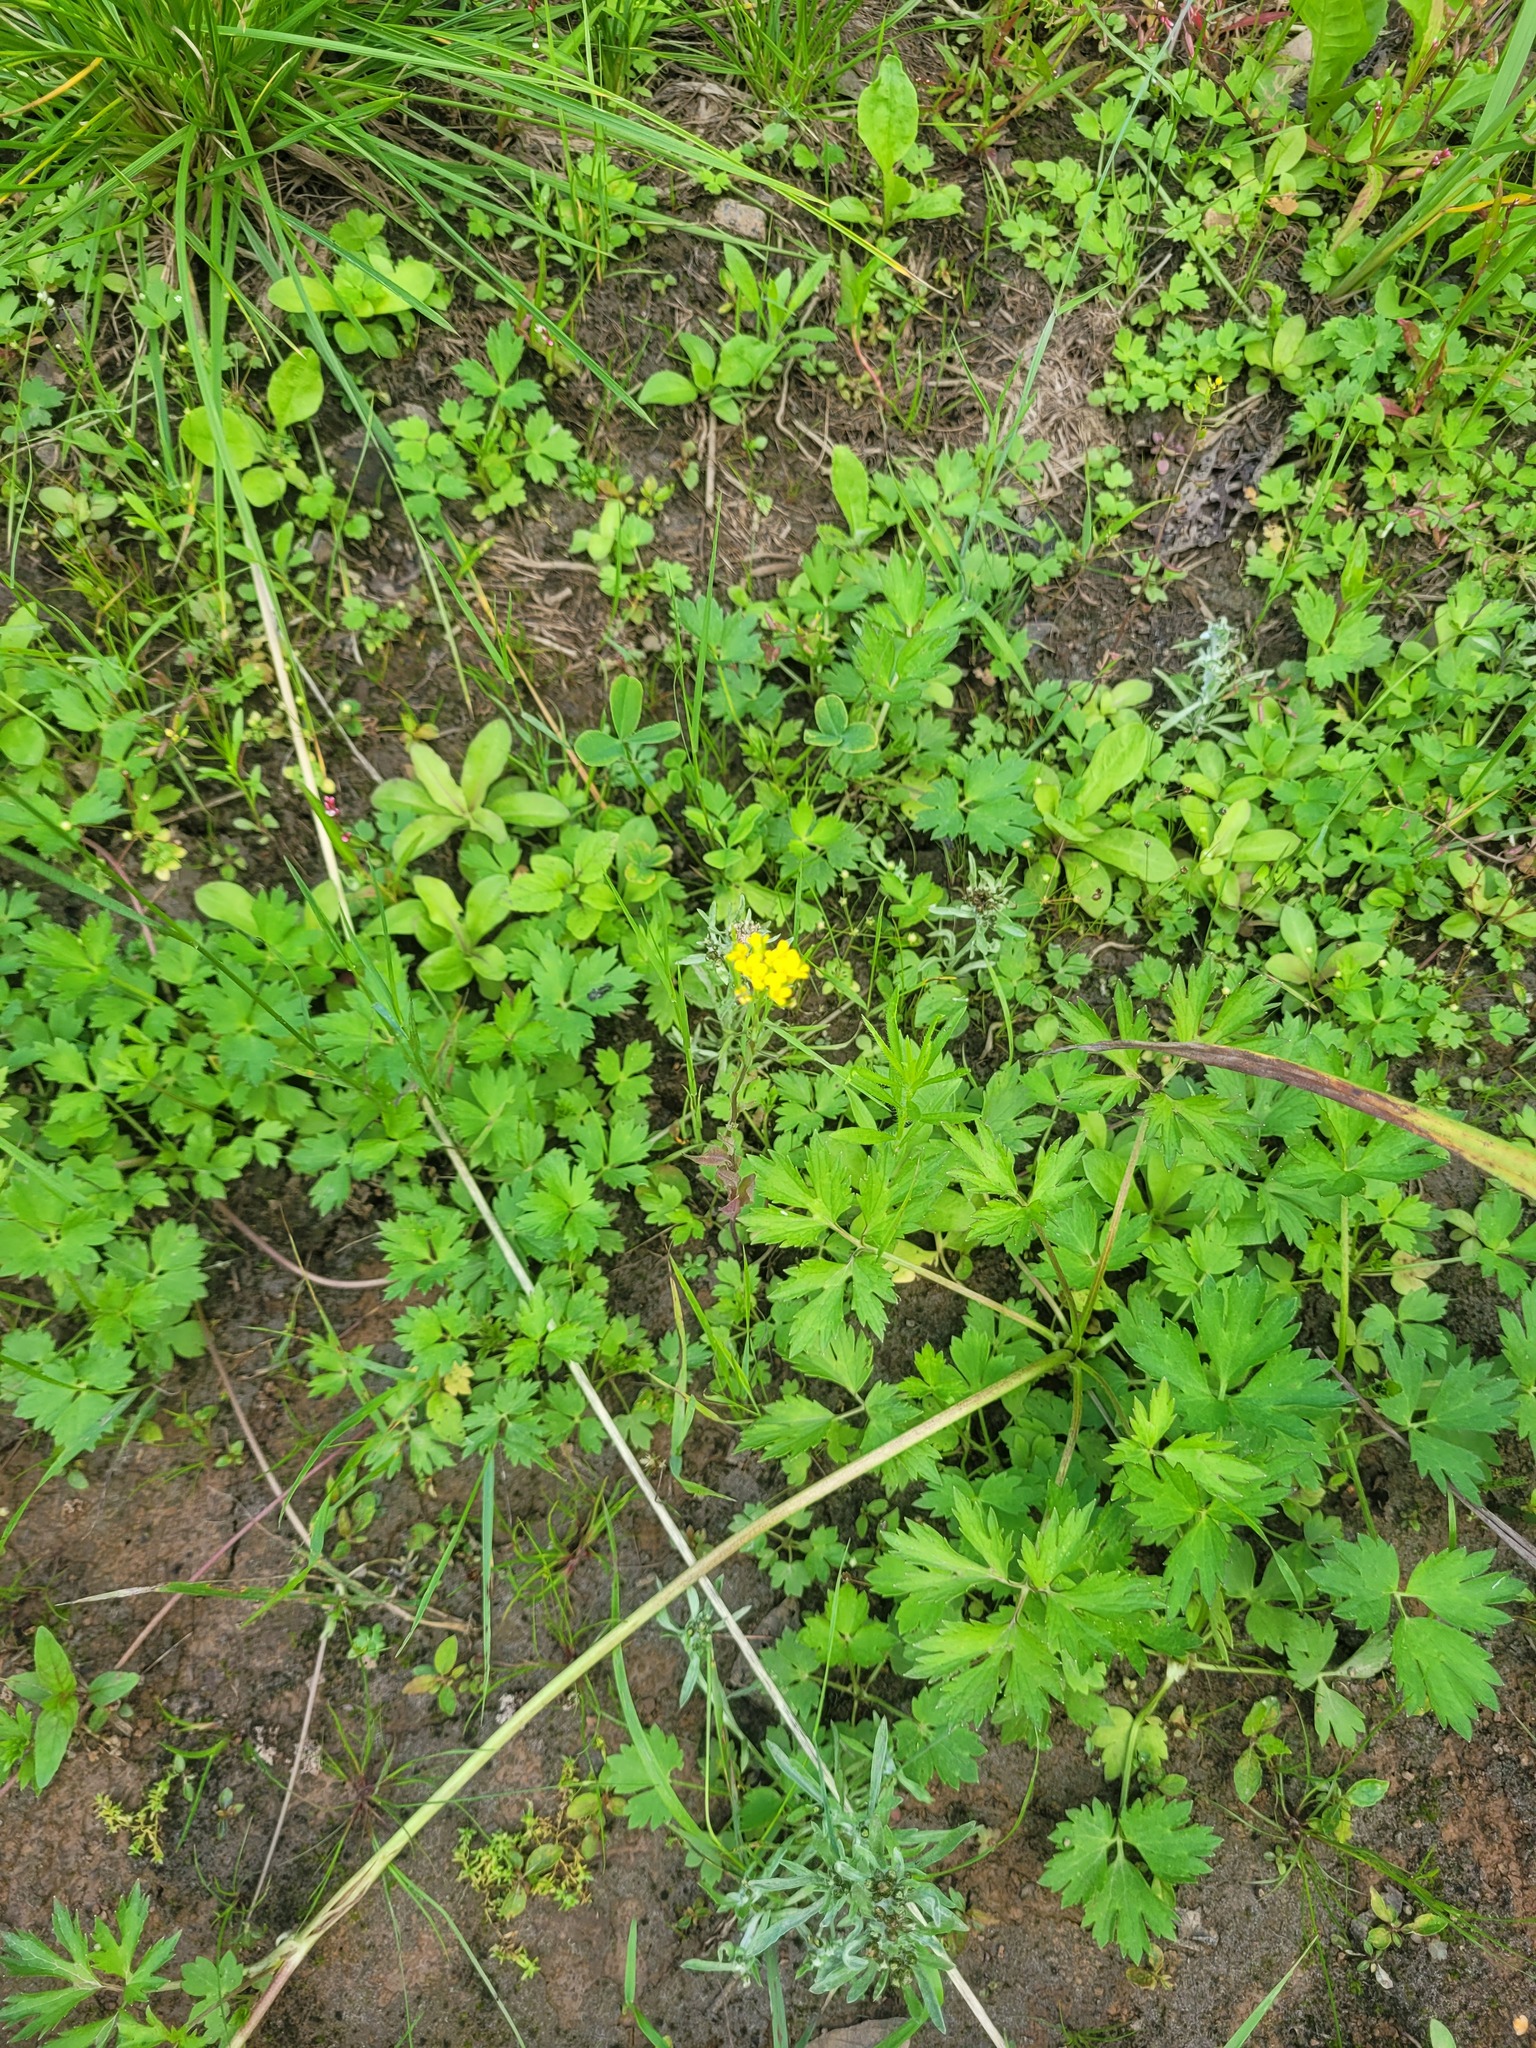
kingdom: Plantae
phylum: Tracheophyta
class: Magnoliopsida
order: Brassicales
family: Brassicaceae
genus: Erysimum
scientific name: Erysimum cheiranthoides
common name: Treacle mustard
